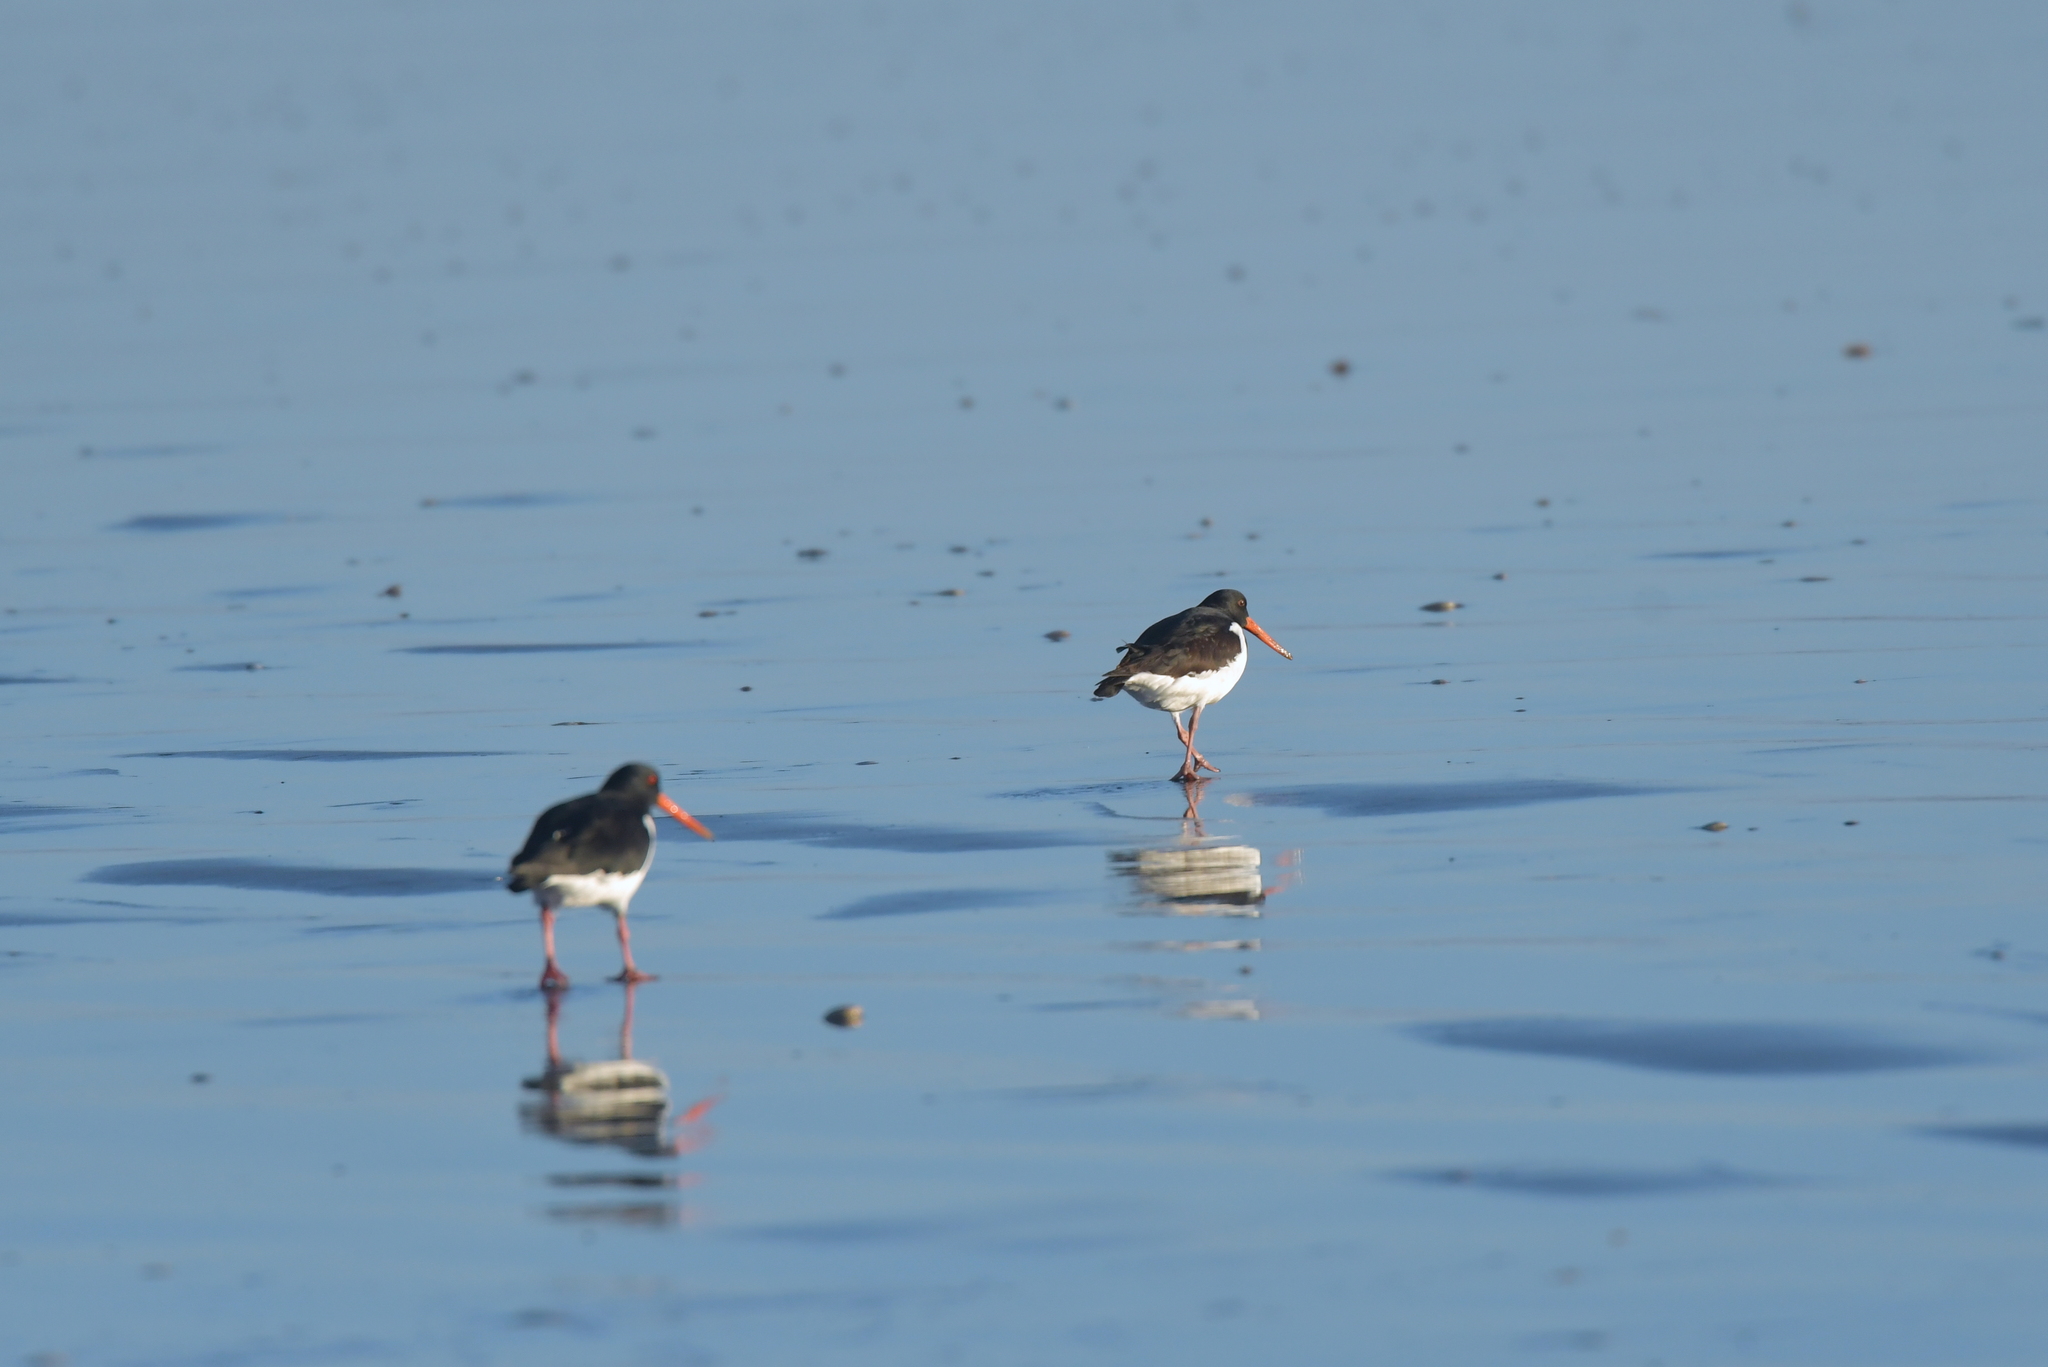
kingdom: Animalia
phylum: Chordata
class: Aves
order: Charadriiformes
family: Haematopodidae
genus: Haematopus
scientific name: Haematopus finschi
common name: South island oystercatcher
